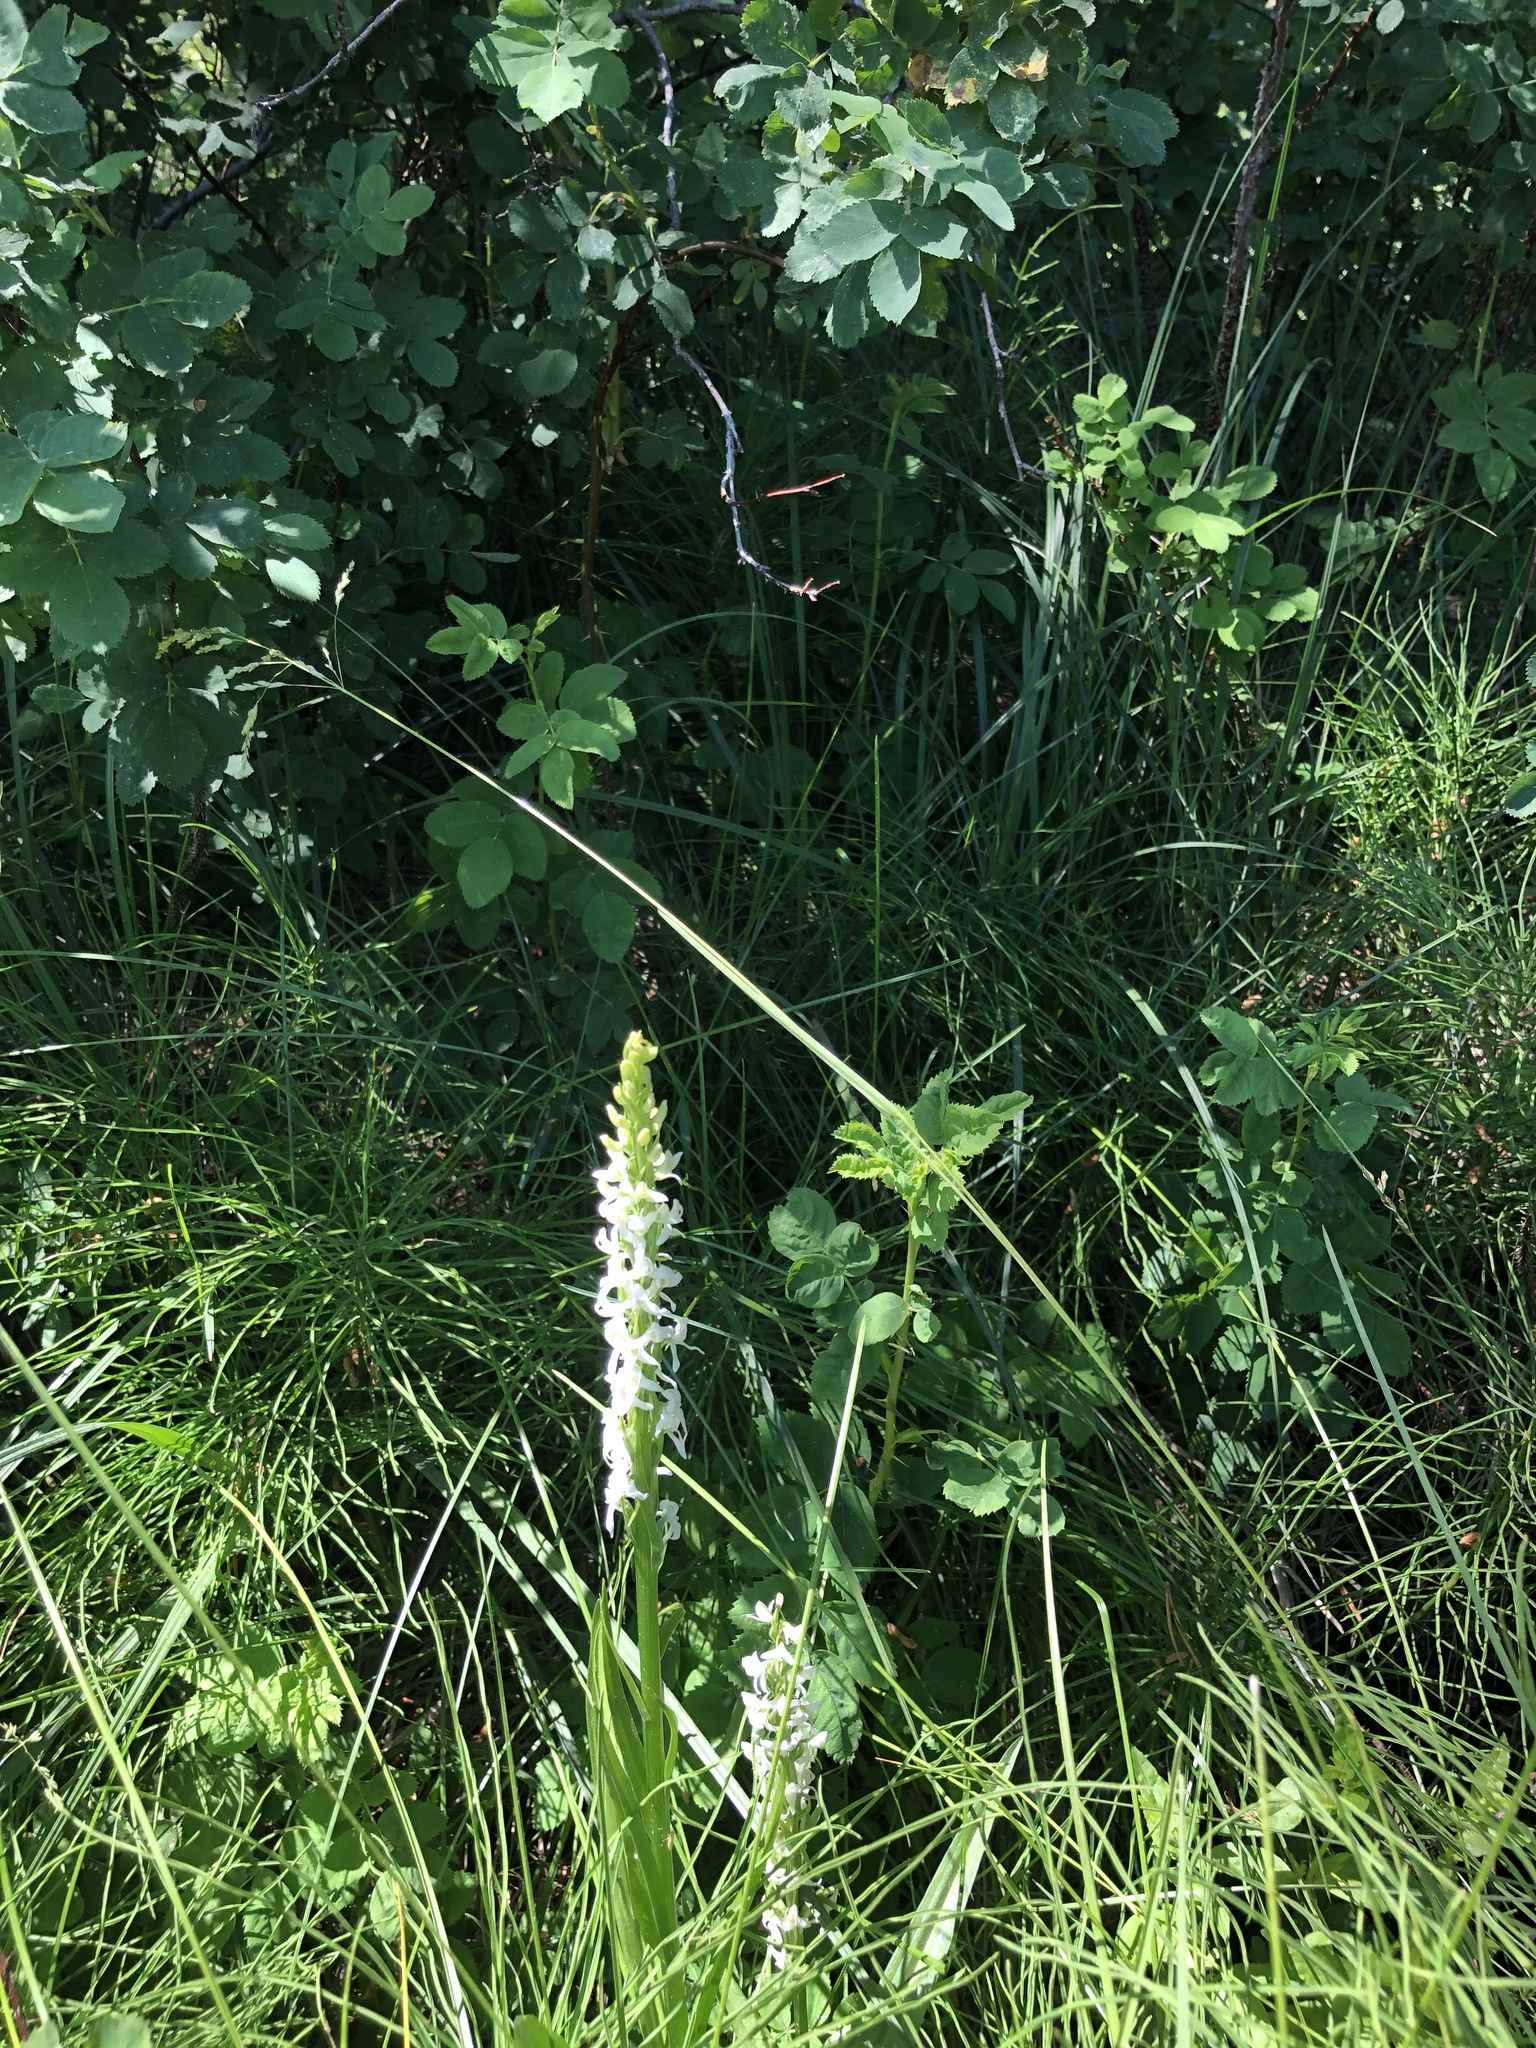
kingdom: Plantae
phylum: Tracheophyta
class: Liliopsida
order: Asparagales
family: Orchidaceae
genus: Platanthera
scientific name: Platanthera dilatata
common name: Bog candles
